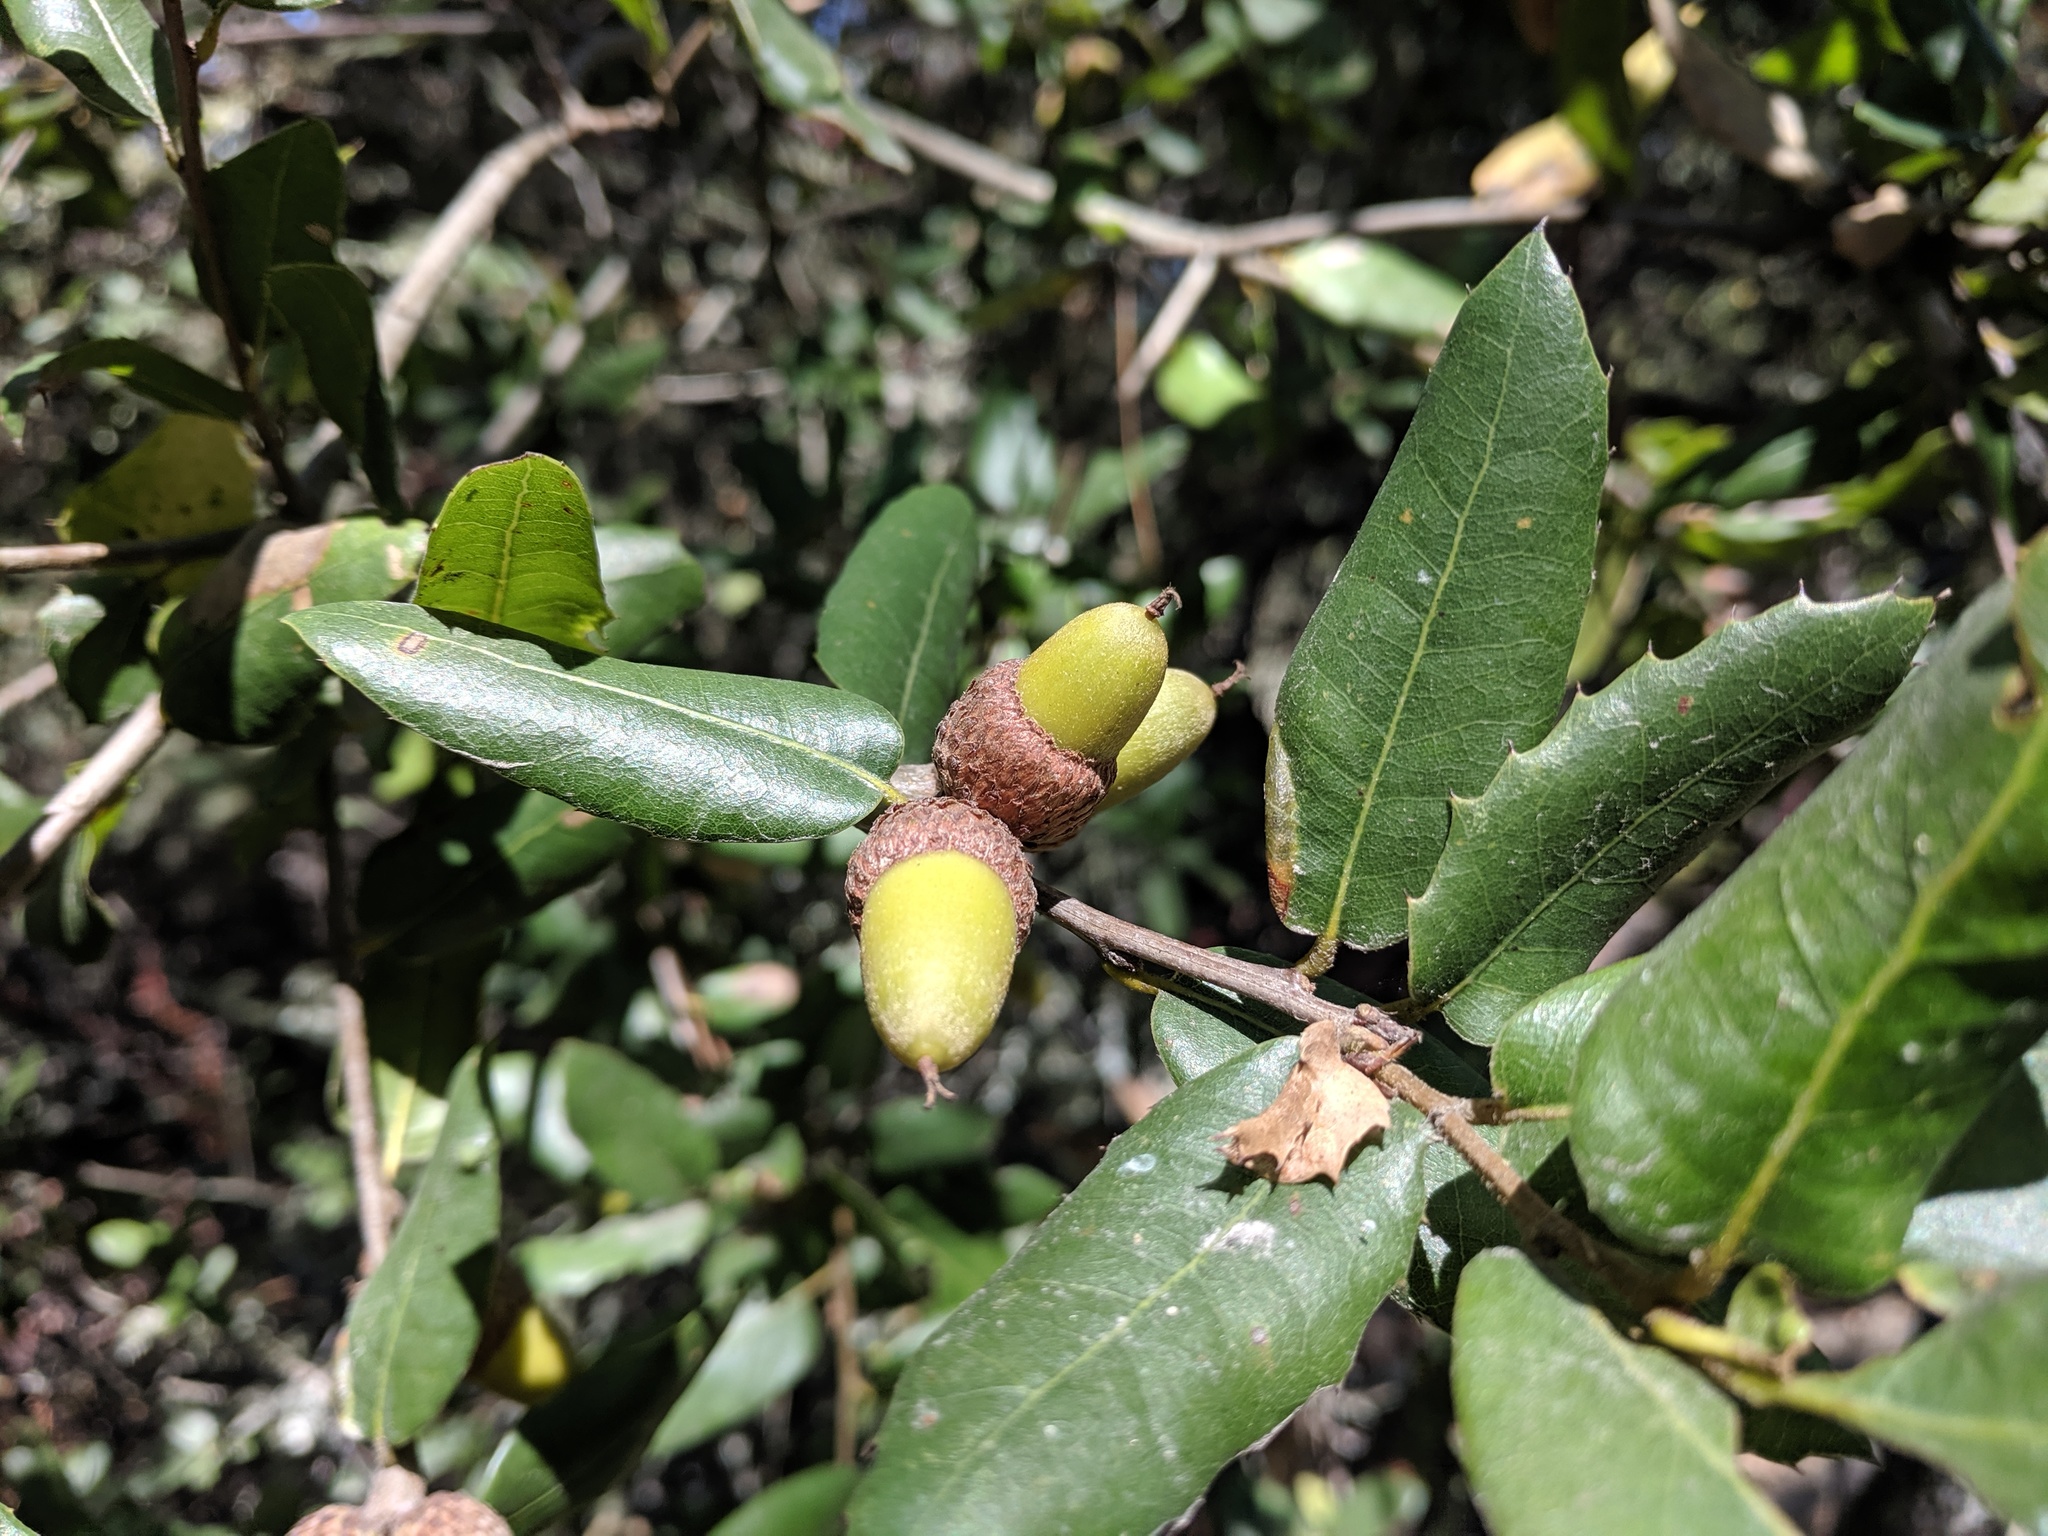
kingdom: Plantae
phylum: Tracheophyta
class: Magnoliopsida
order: Fagales
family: Fagaceae
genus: Quercus
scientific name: Quercus wislizeni
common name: Interior live oak
